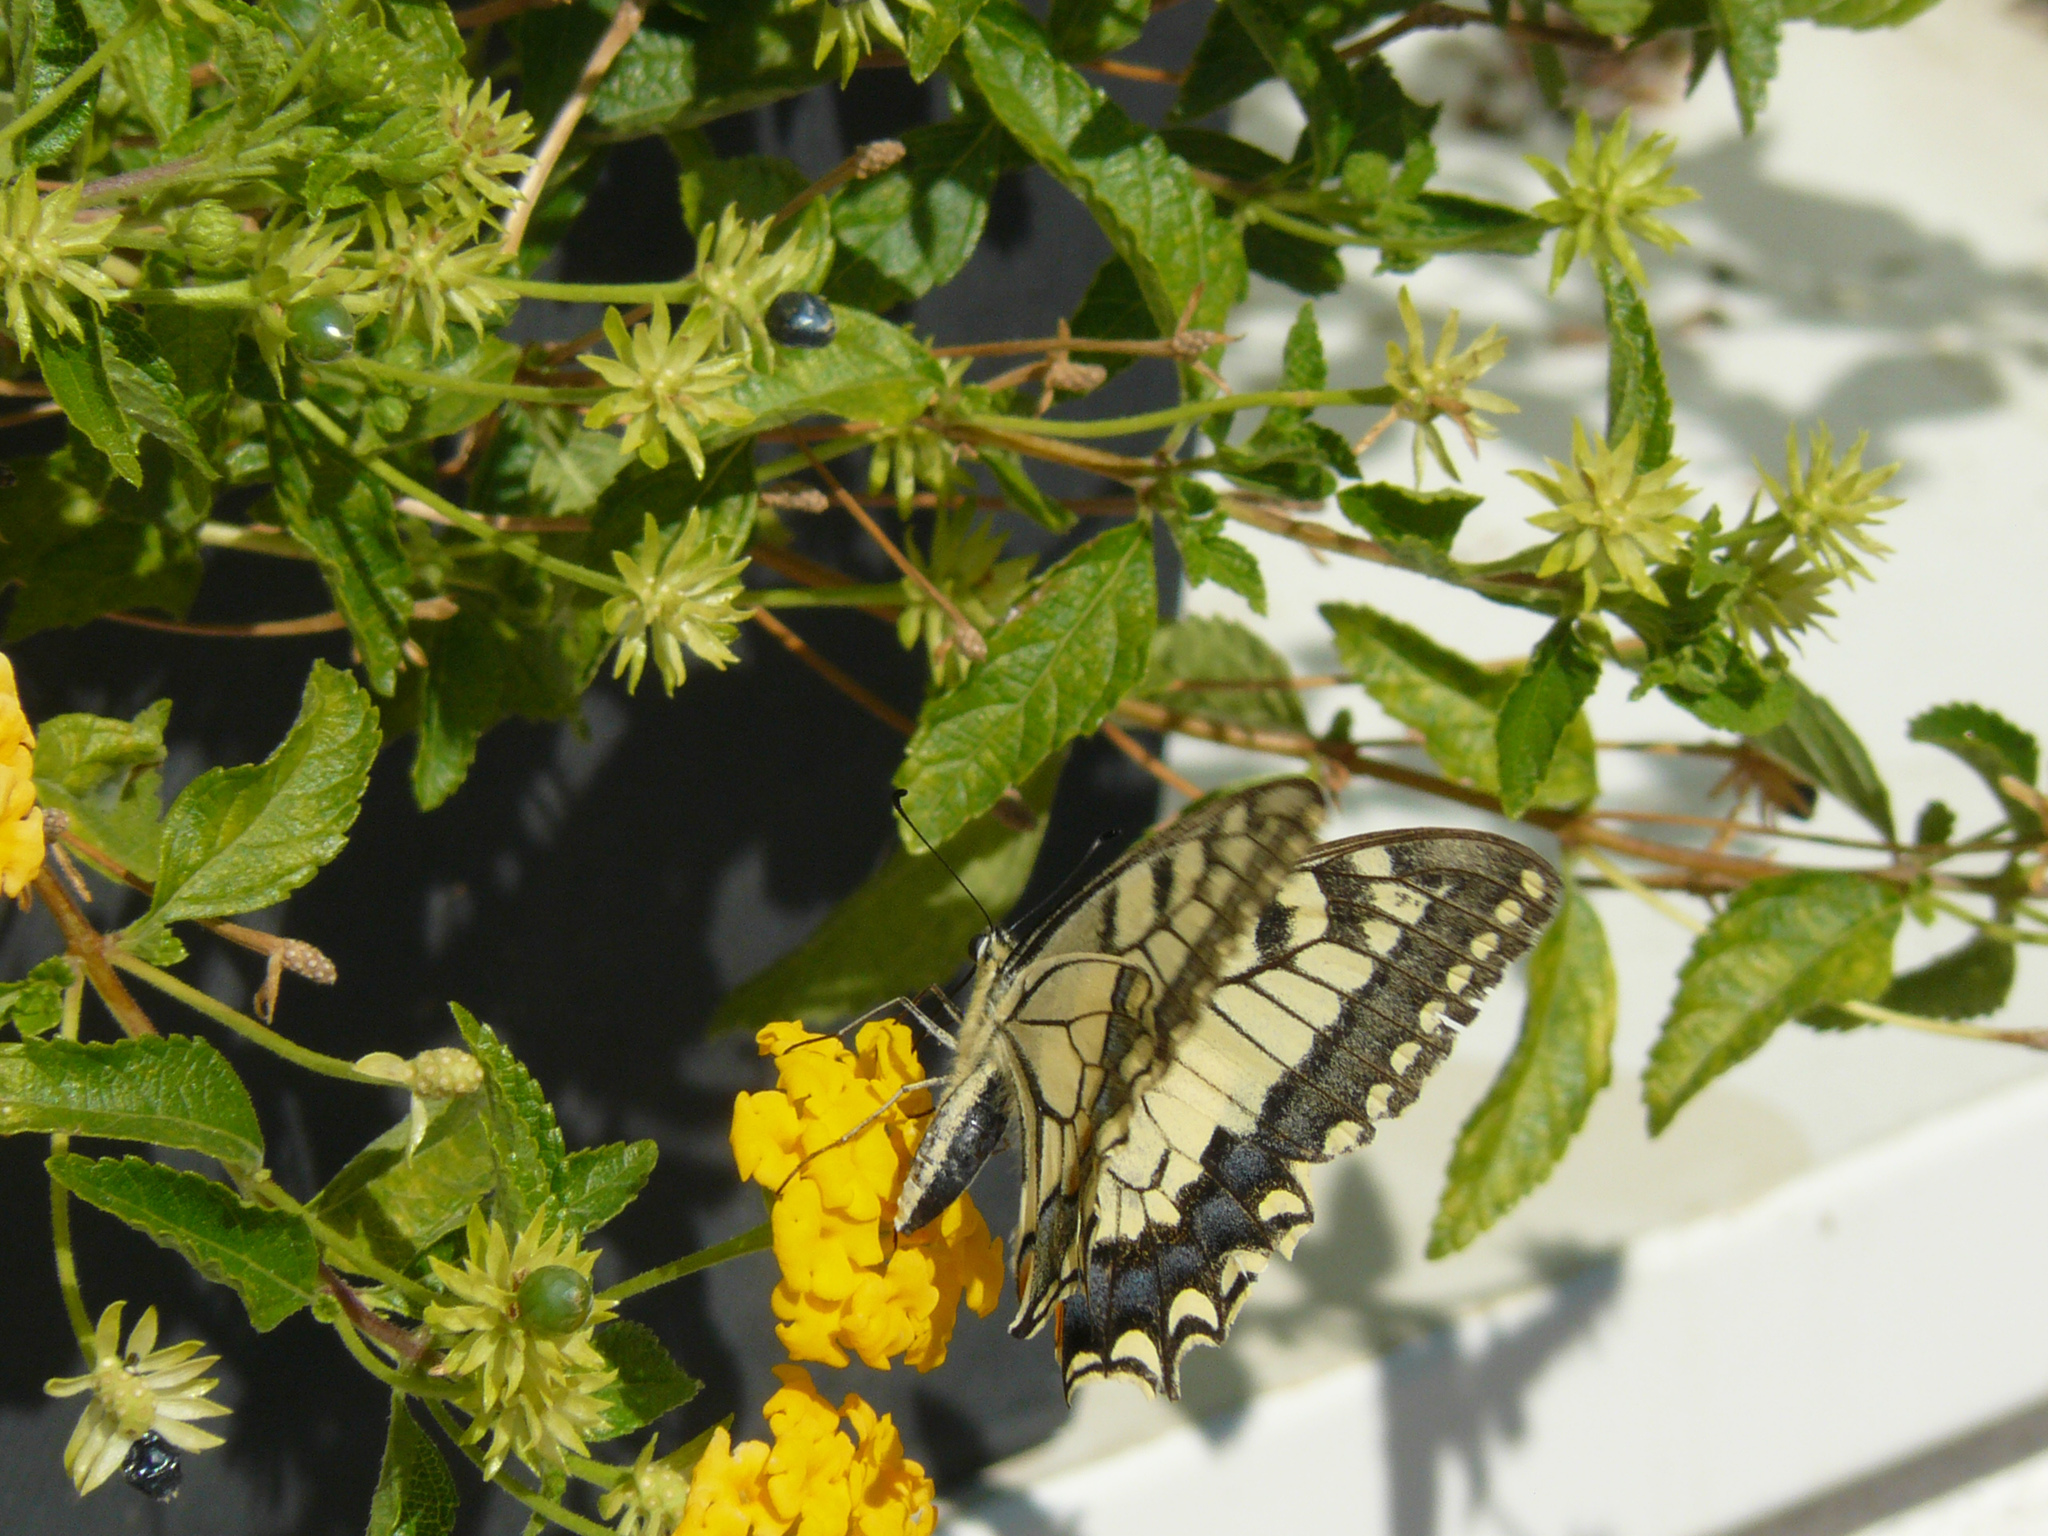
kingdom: Animalia
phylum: Arthropoda
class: Insecta
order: Lepidoptera
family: Papilionidae
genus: Papilio
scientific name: Papilio machaon
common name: Swallowtail
